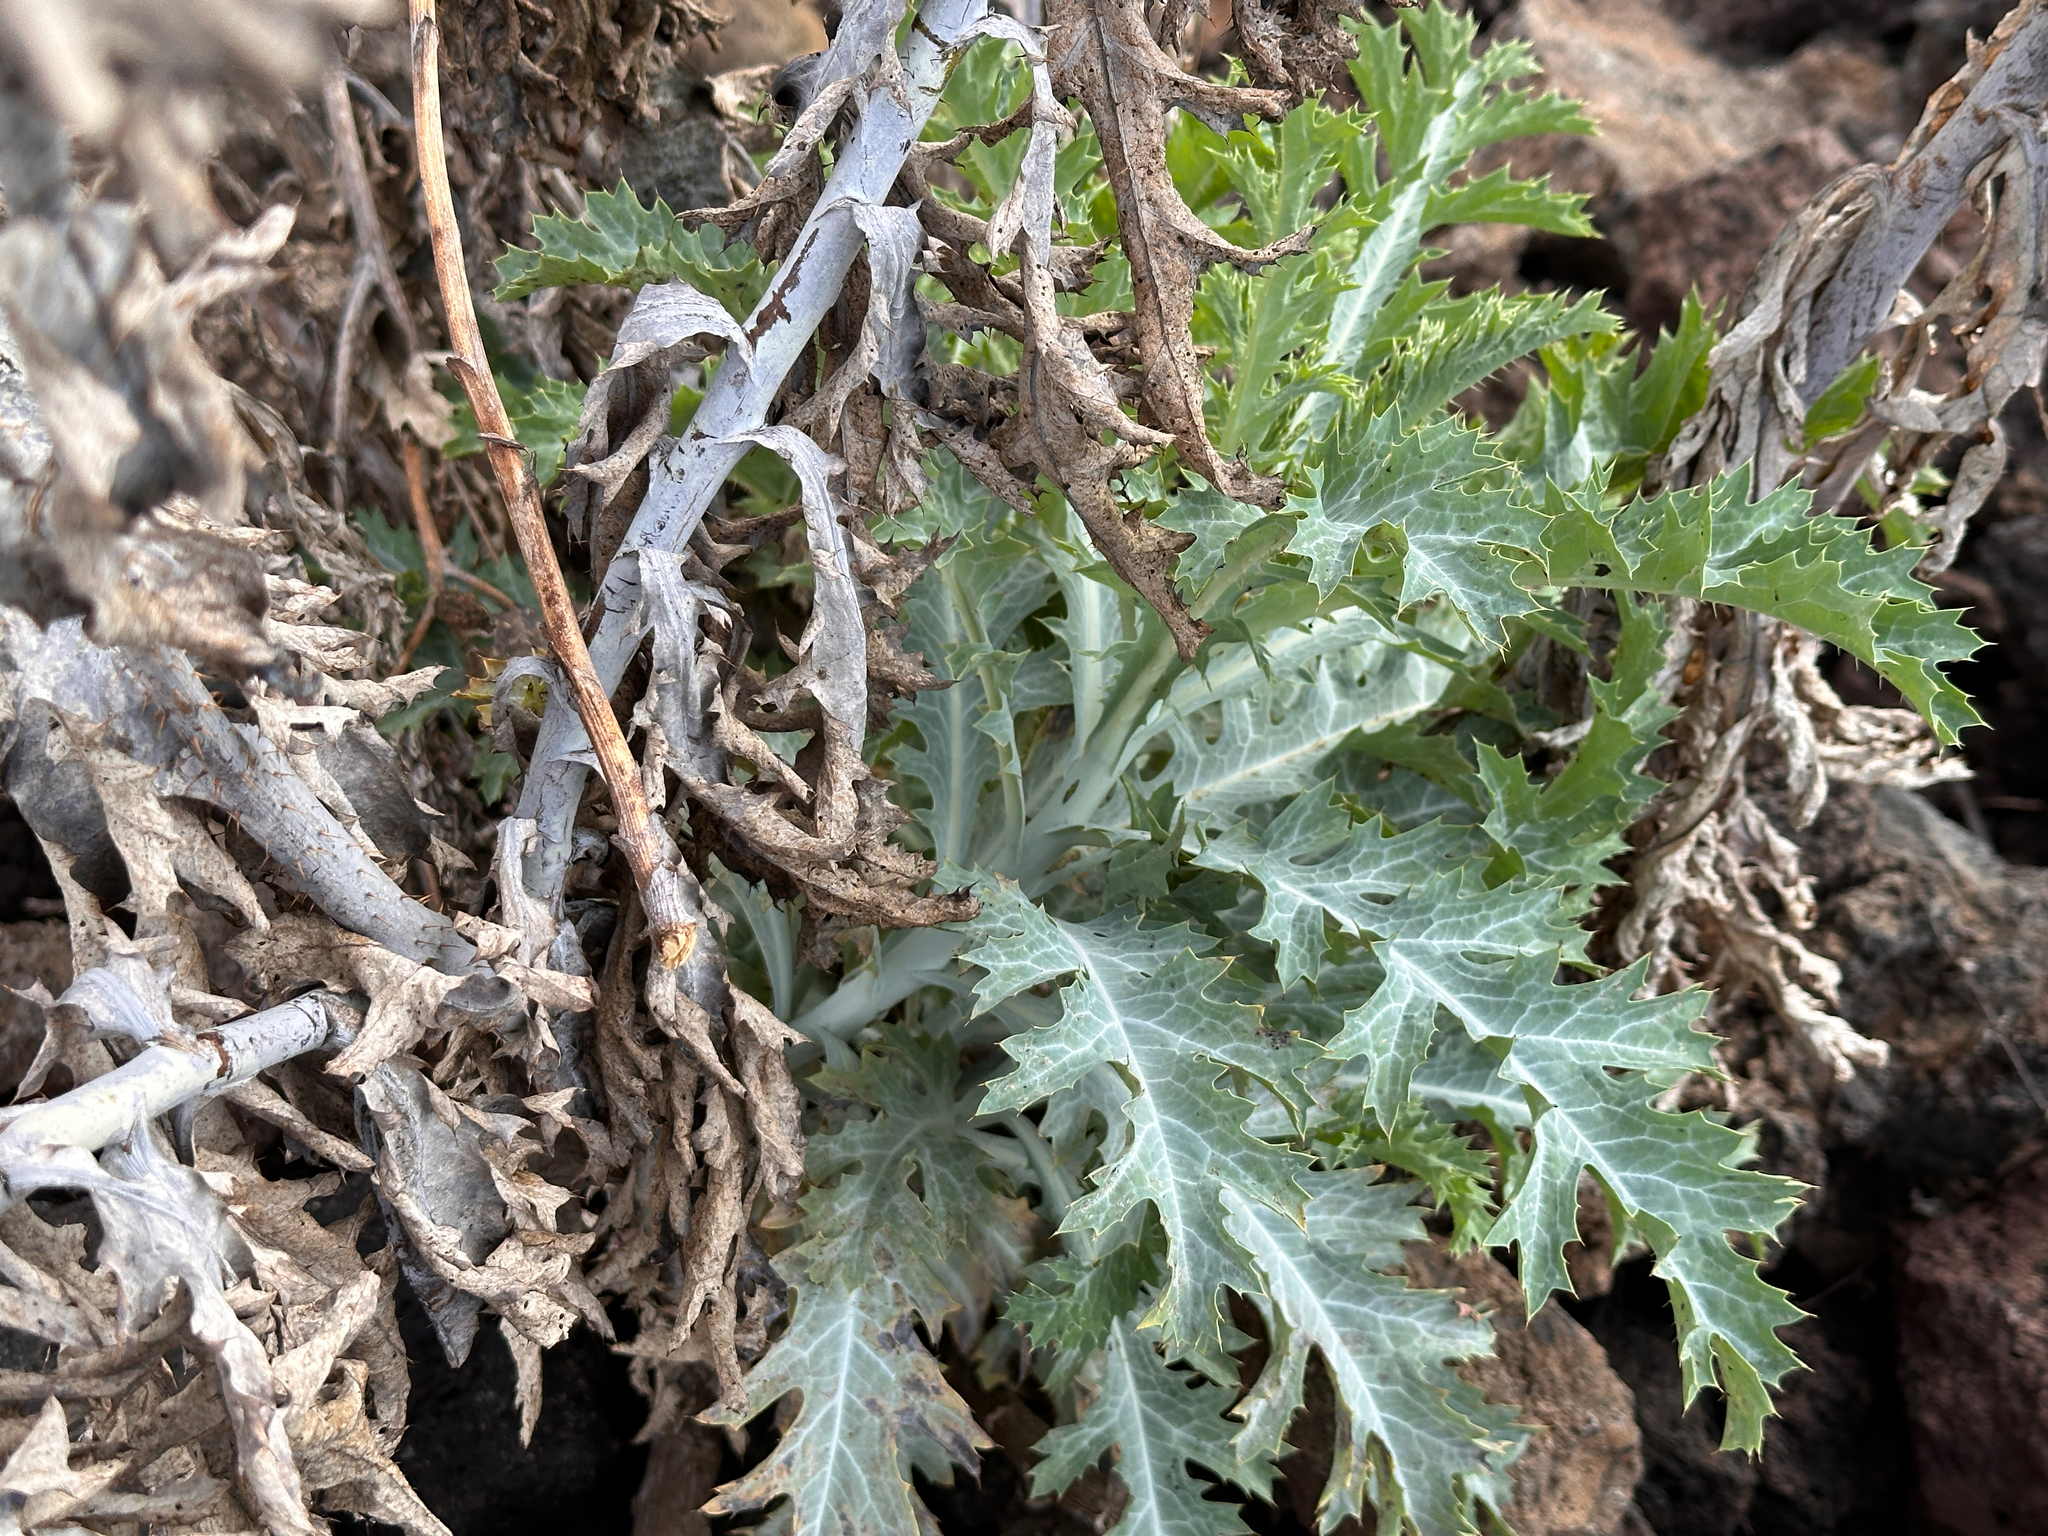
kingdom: Plantae
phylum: Tracheophyta
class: Magnoliopsida
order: Ranunculales
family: Papaveraceae
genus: Argemone
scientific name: Argemone glauca
